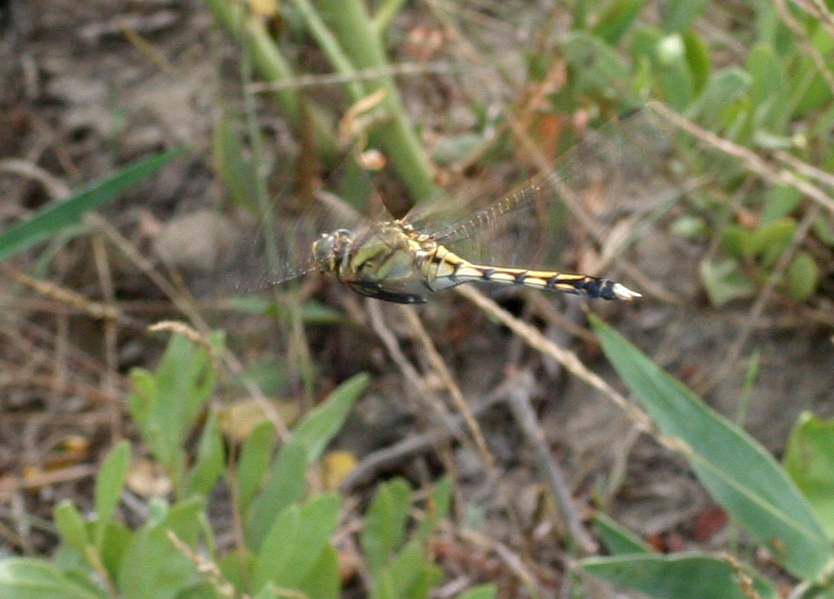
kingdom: Animalia
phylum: Arthropoda
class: Insecta
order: Odonata
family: Libellulidae
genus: Orthetrum
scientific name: Orthetrum albistylum
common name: White-tailed skimmer
